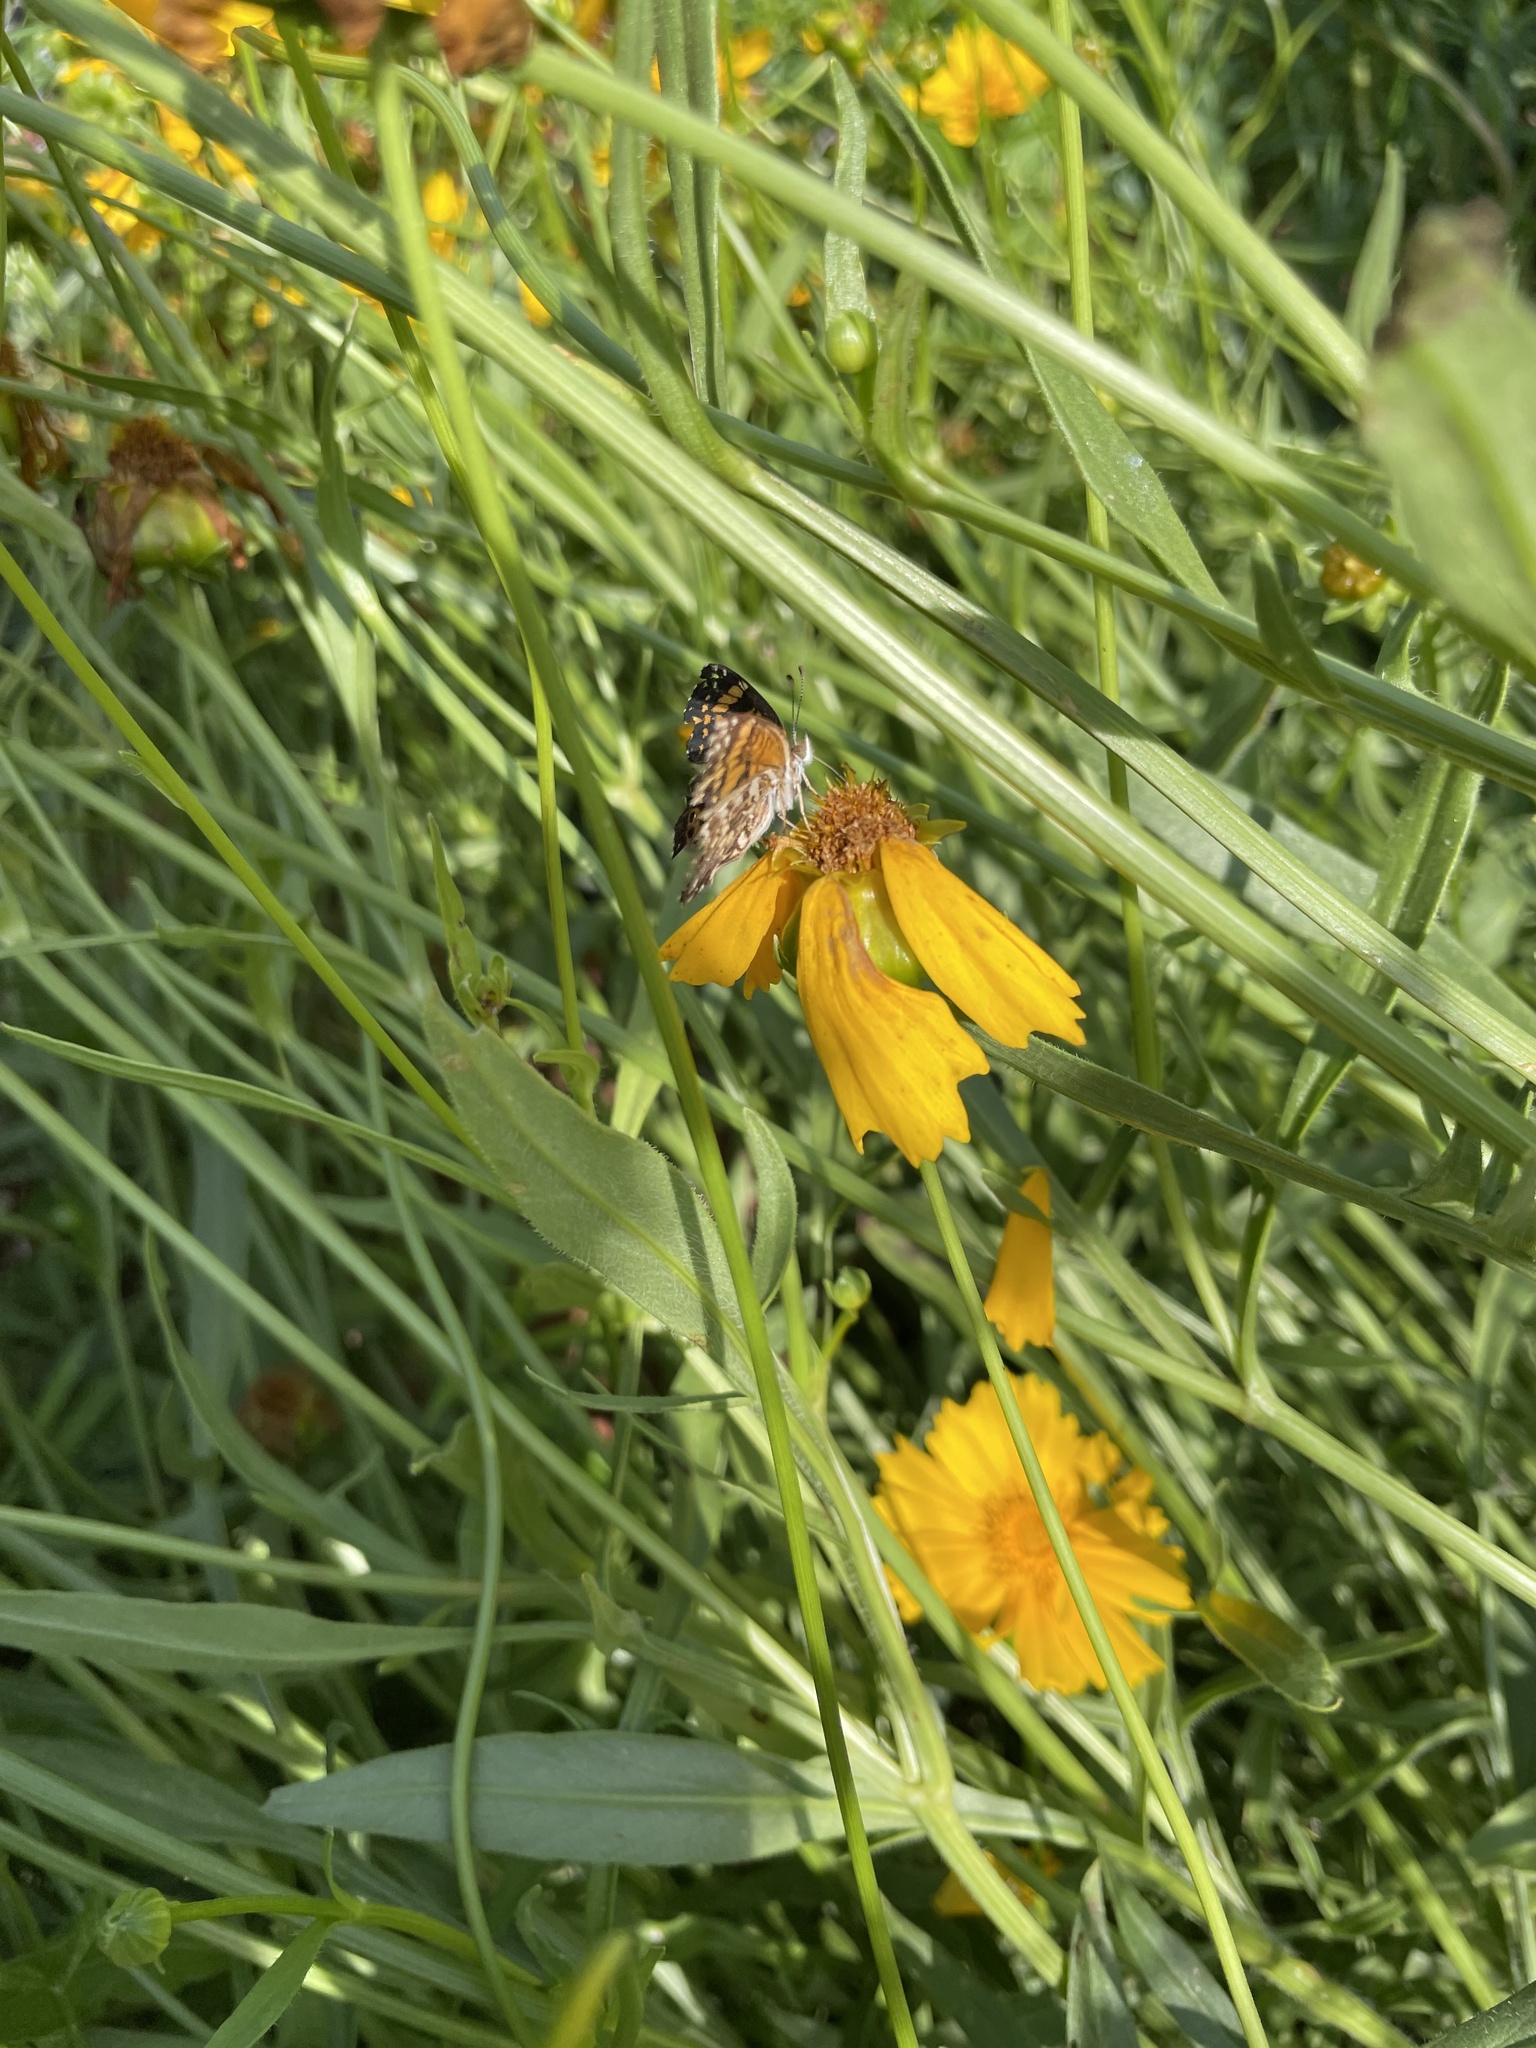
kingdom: Animalia
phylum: Arthropoda
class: Insecta
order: Lepidoptera
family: Nymphalidae
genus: Chlosyne
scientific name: Chlosyne gorgone
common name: Gorgone checkerspot
